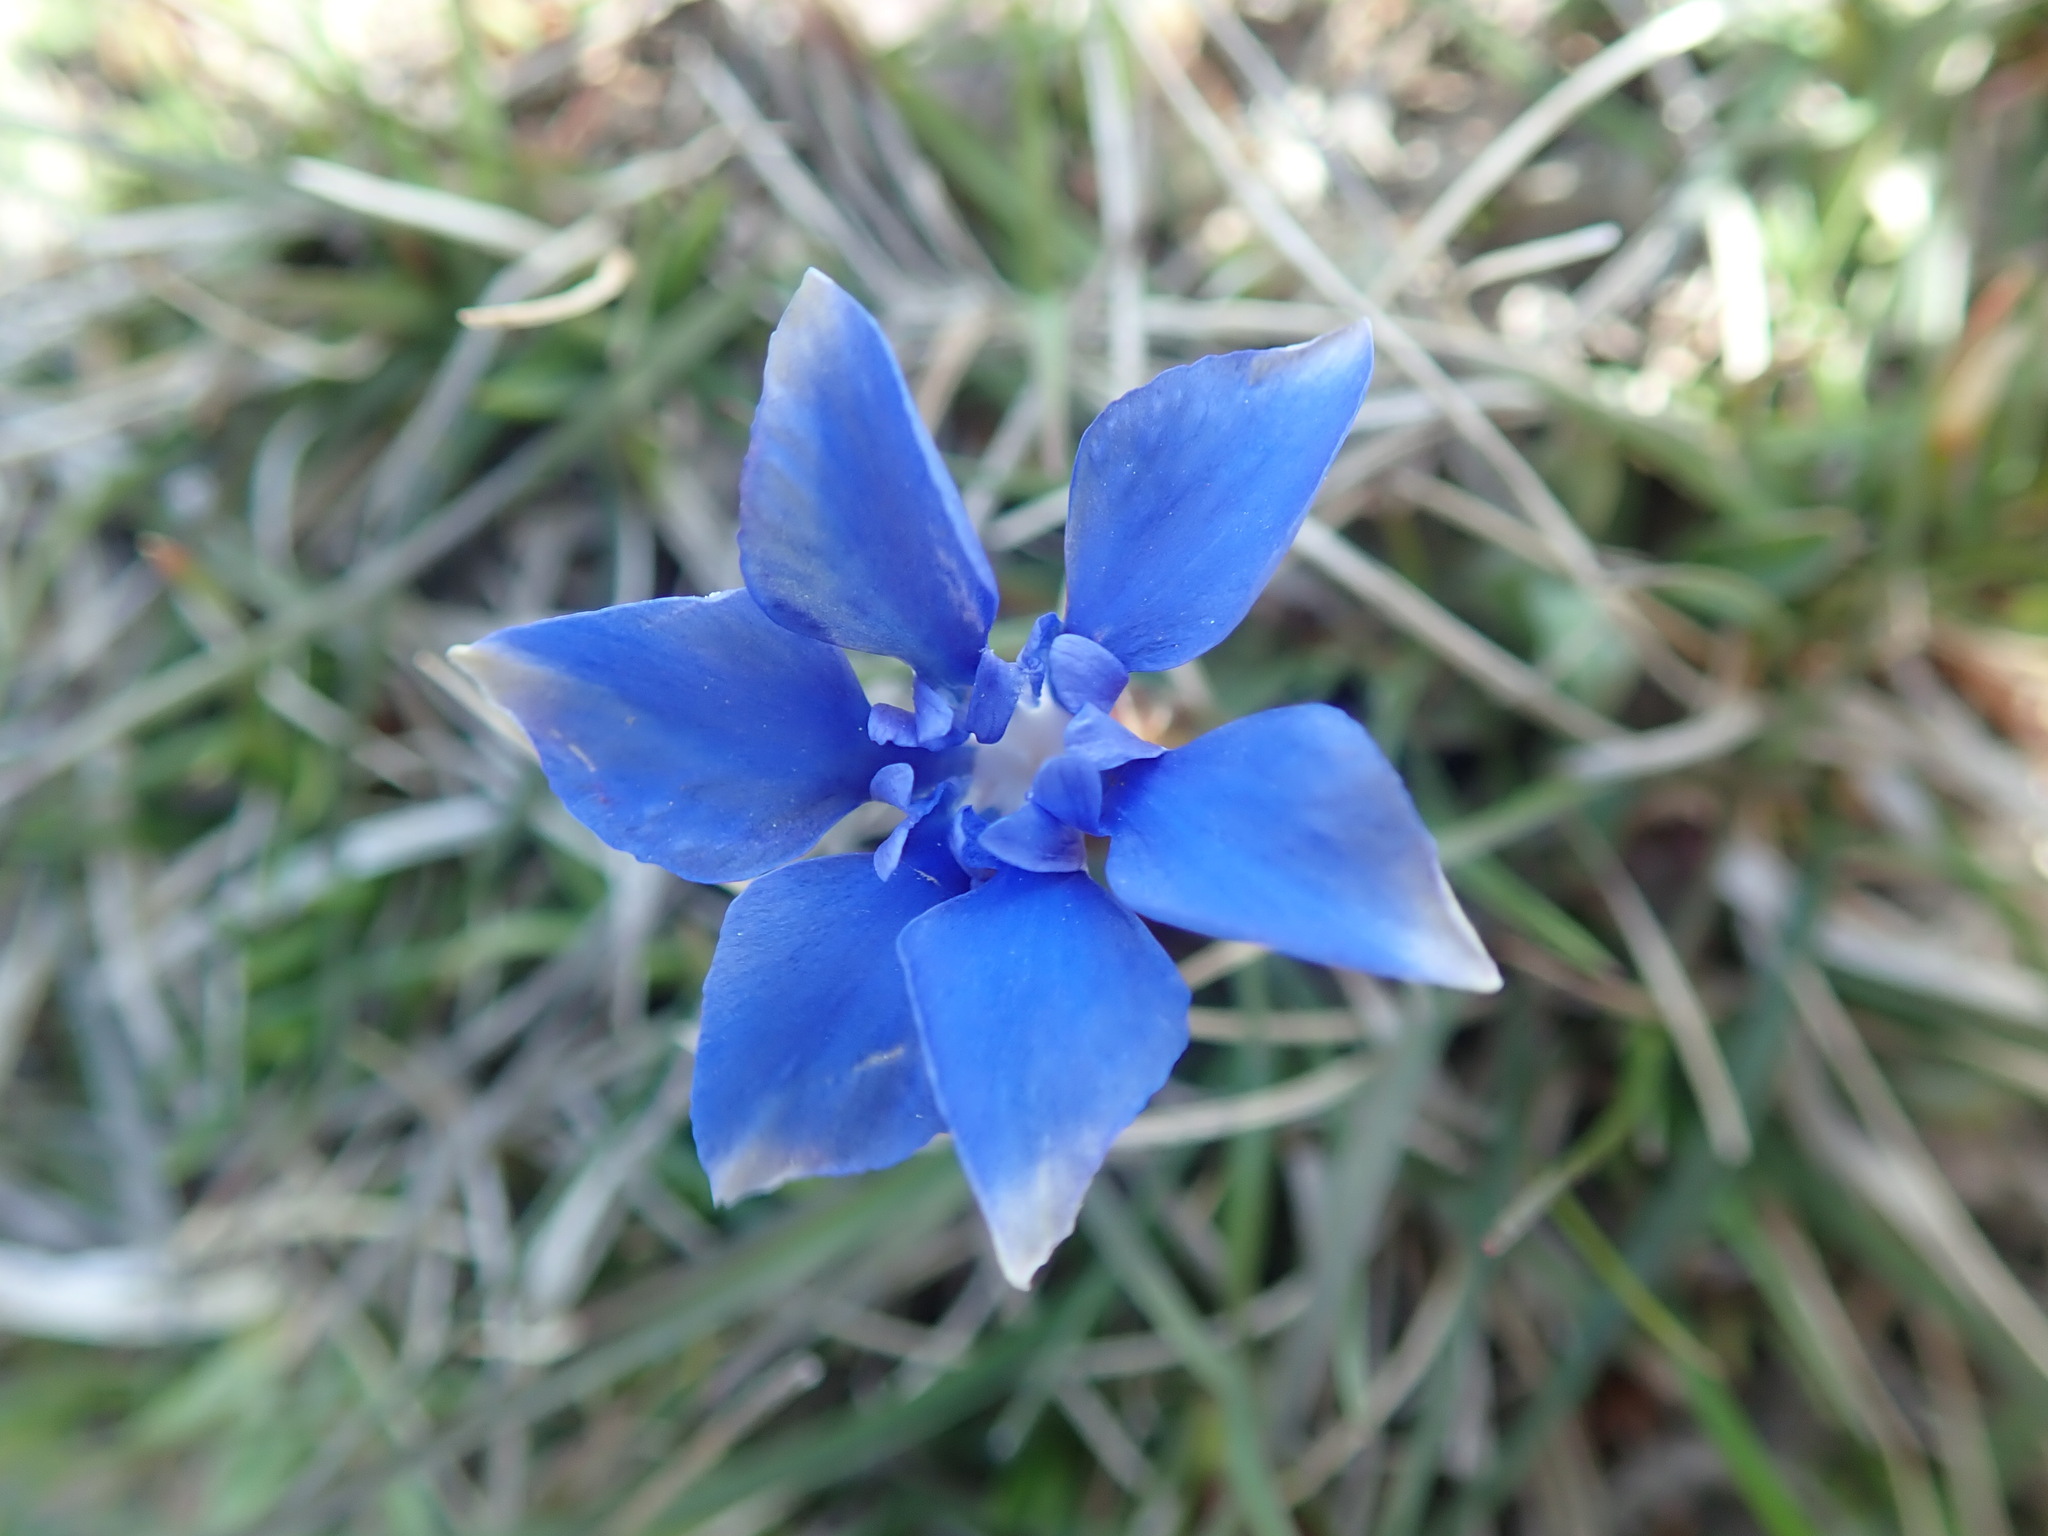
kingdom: Plantae
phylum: Tracheophyta
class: Magnoliopsida
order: Gentianales
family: Gentianaceae
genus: Gentiana
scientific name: Gentiana
